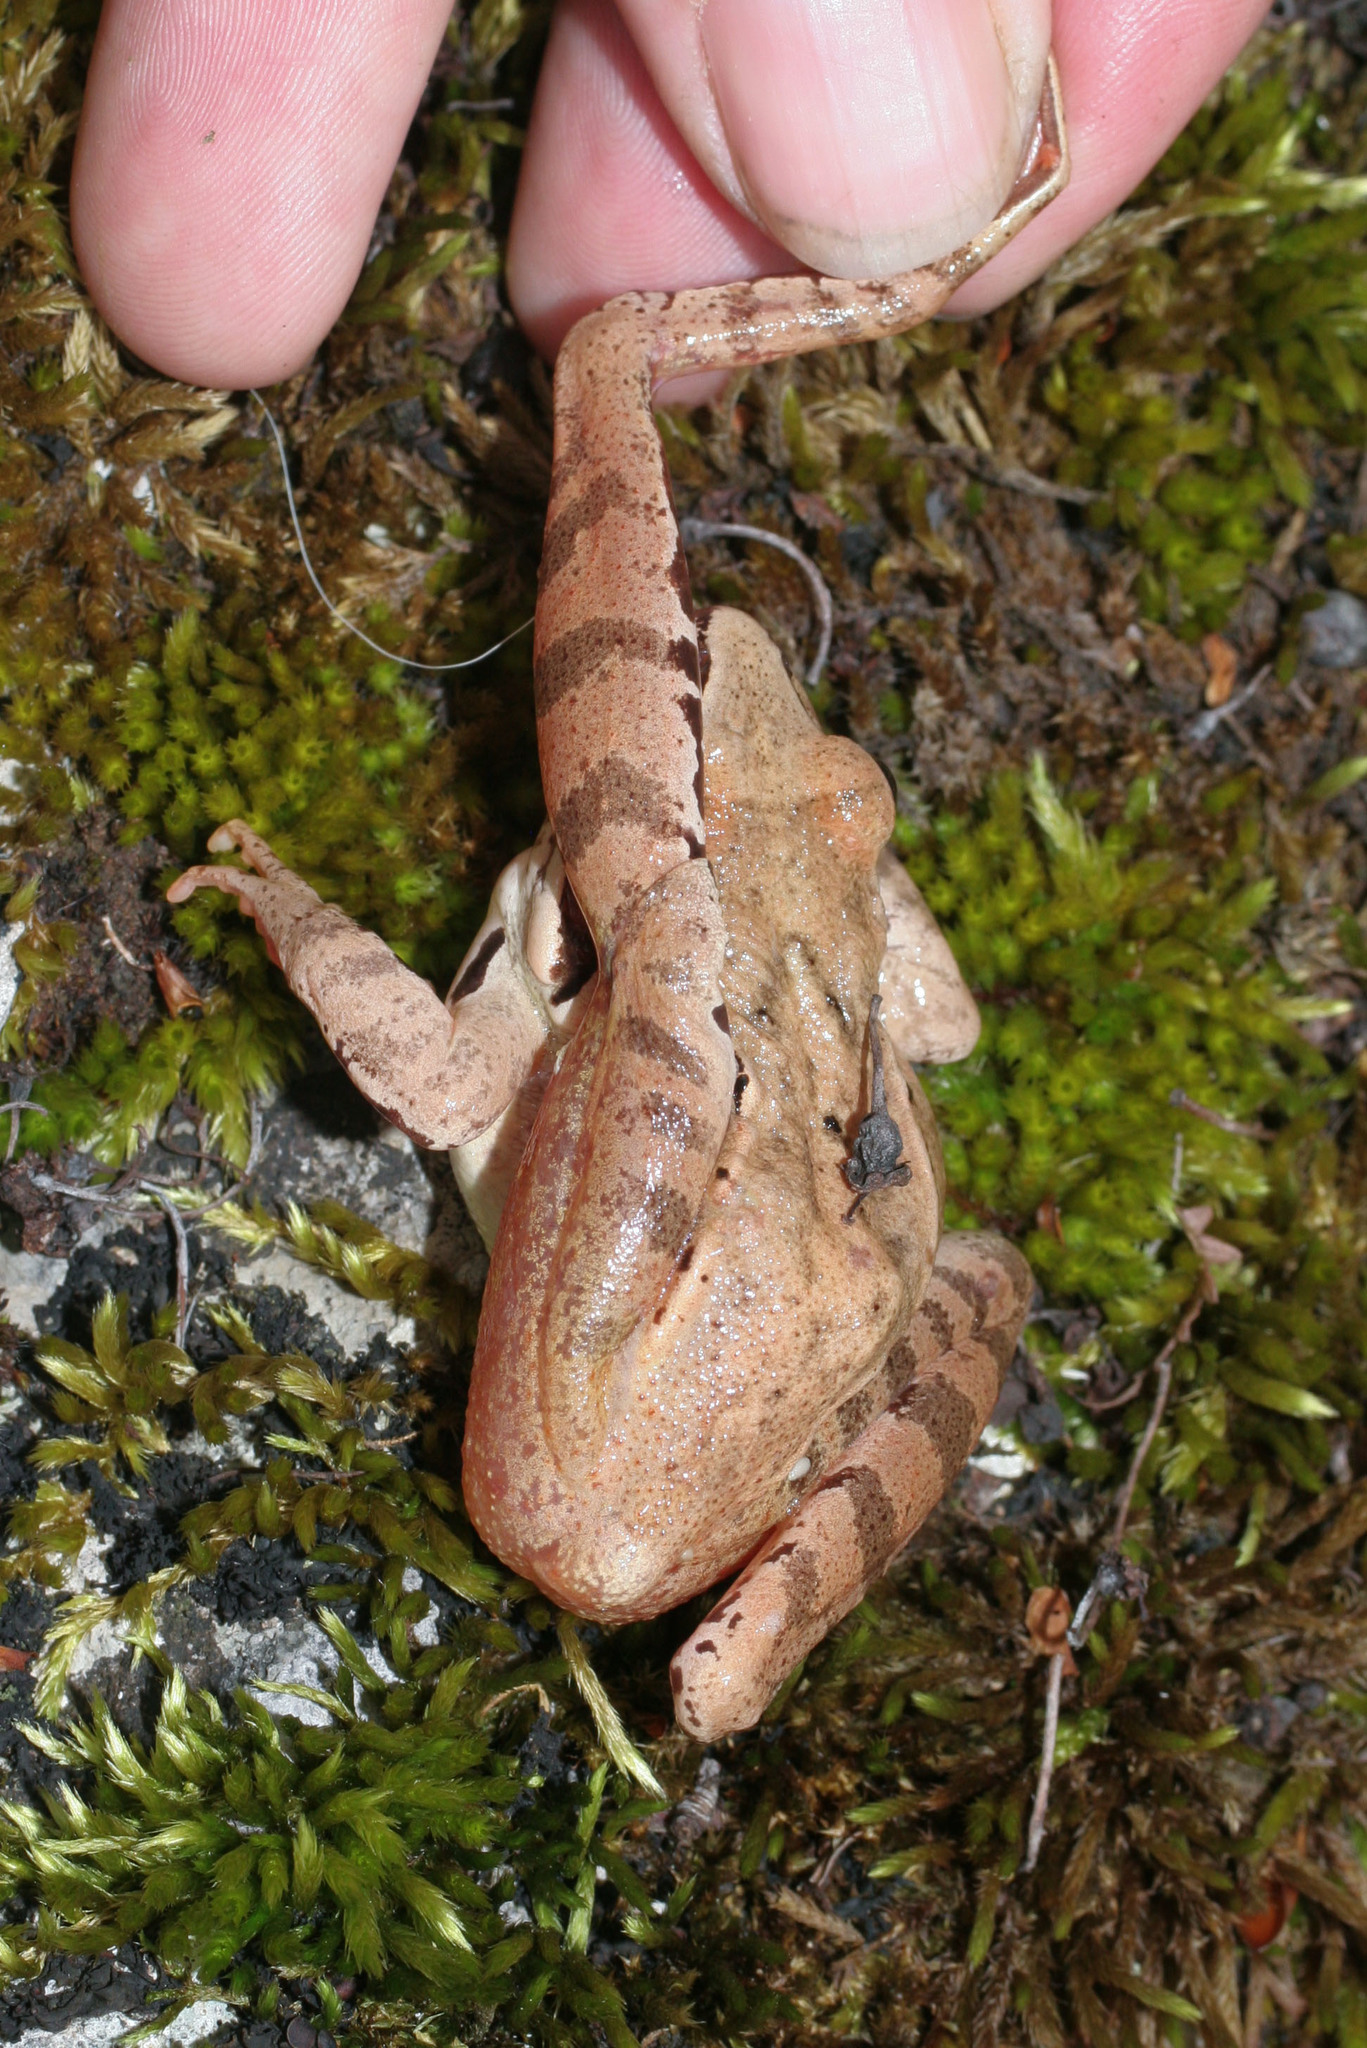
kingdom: Animalia
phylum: Chordata
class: Amphibia
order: Anura
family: Ranidae
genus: Rana
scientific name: Rana dalmatina
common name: Agile frog
